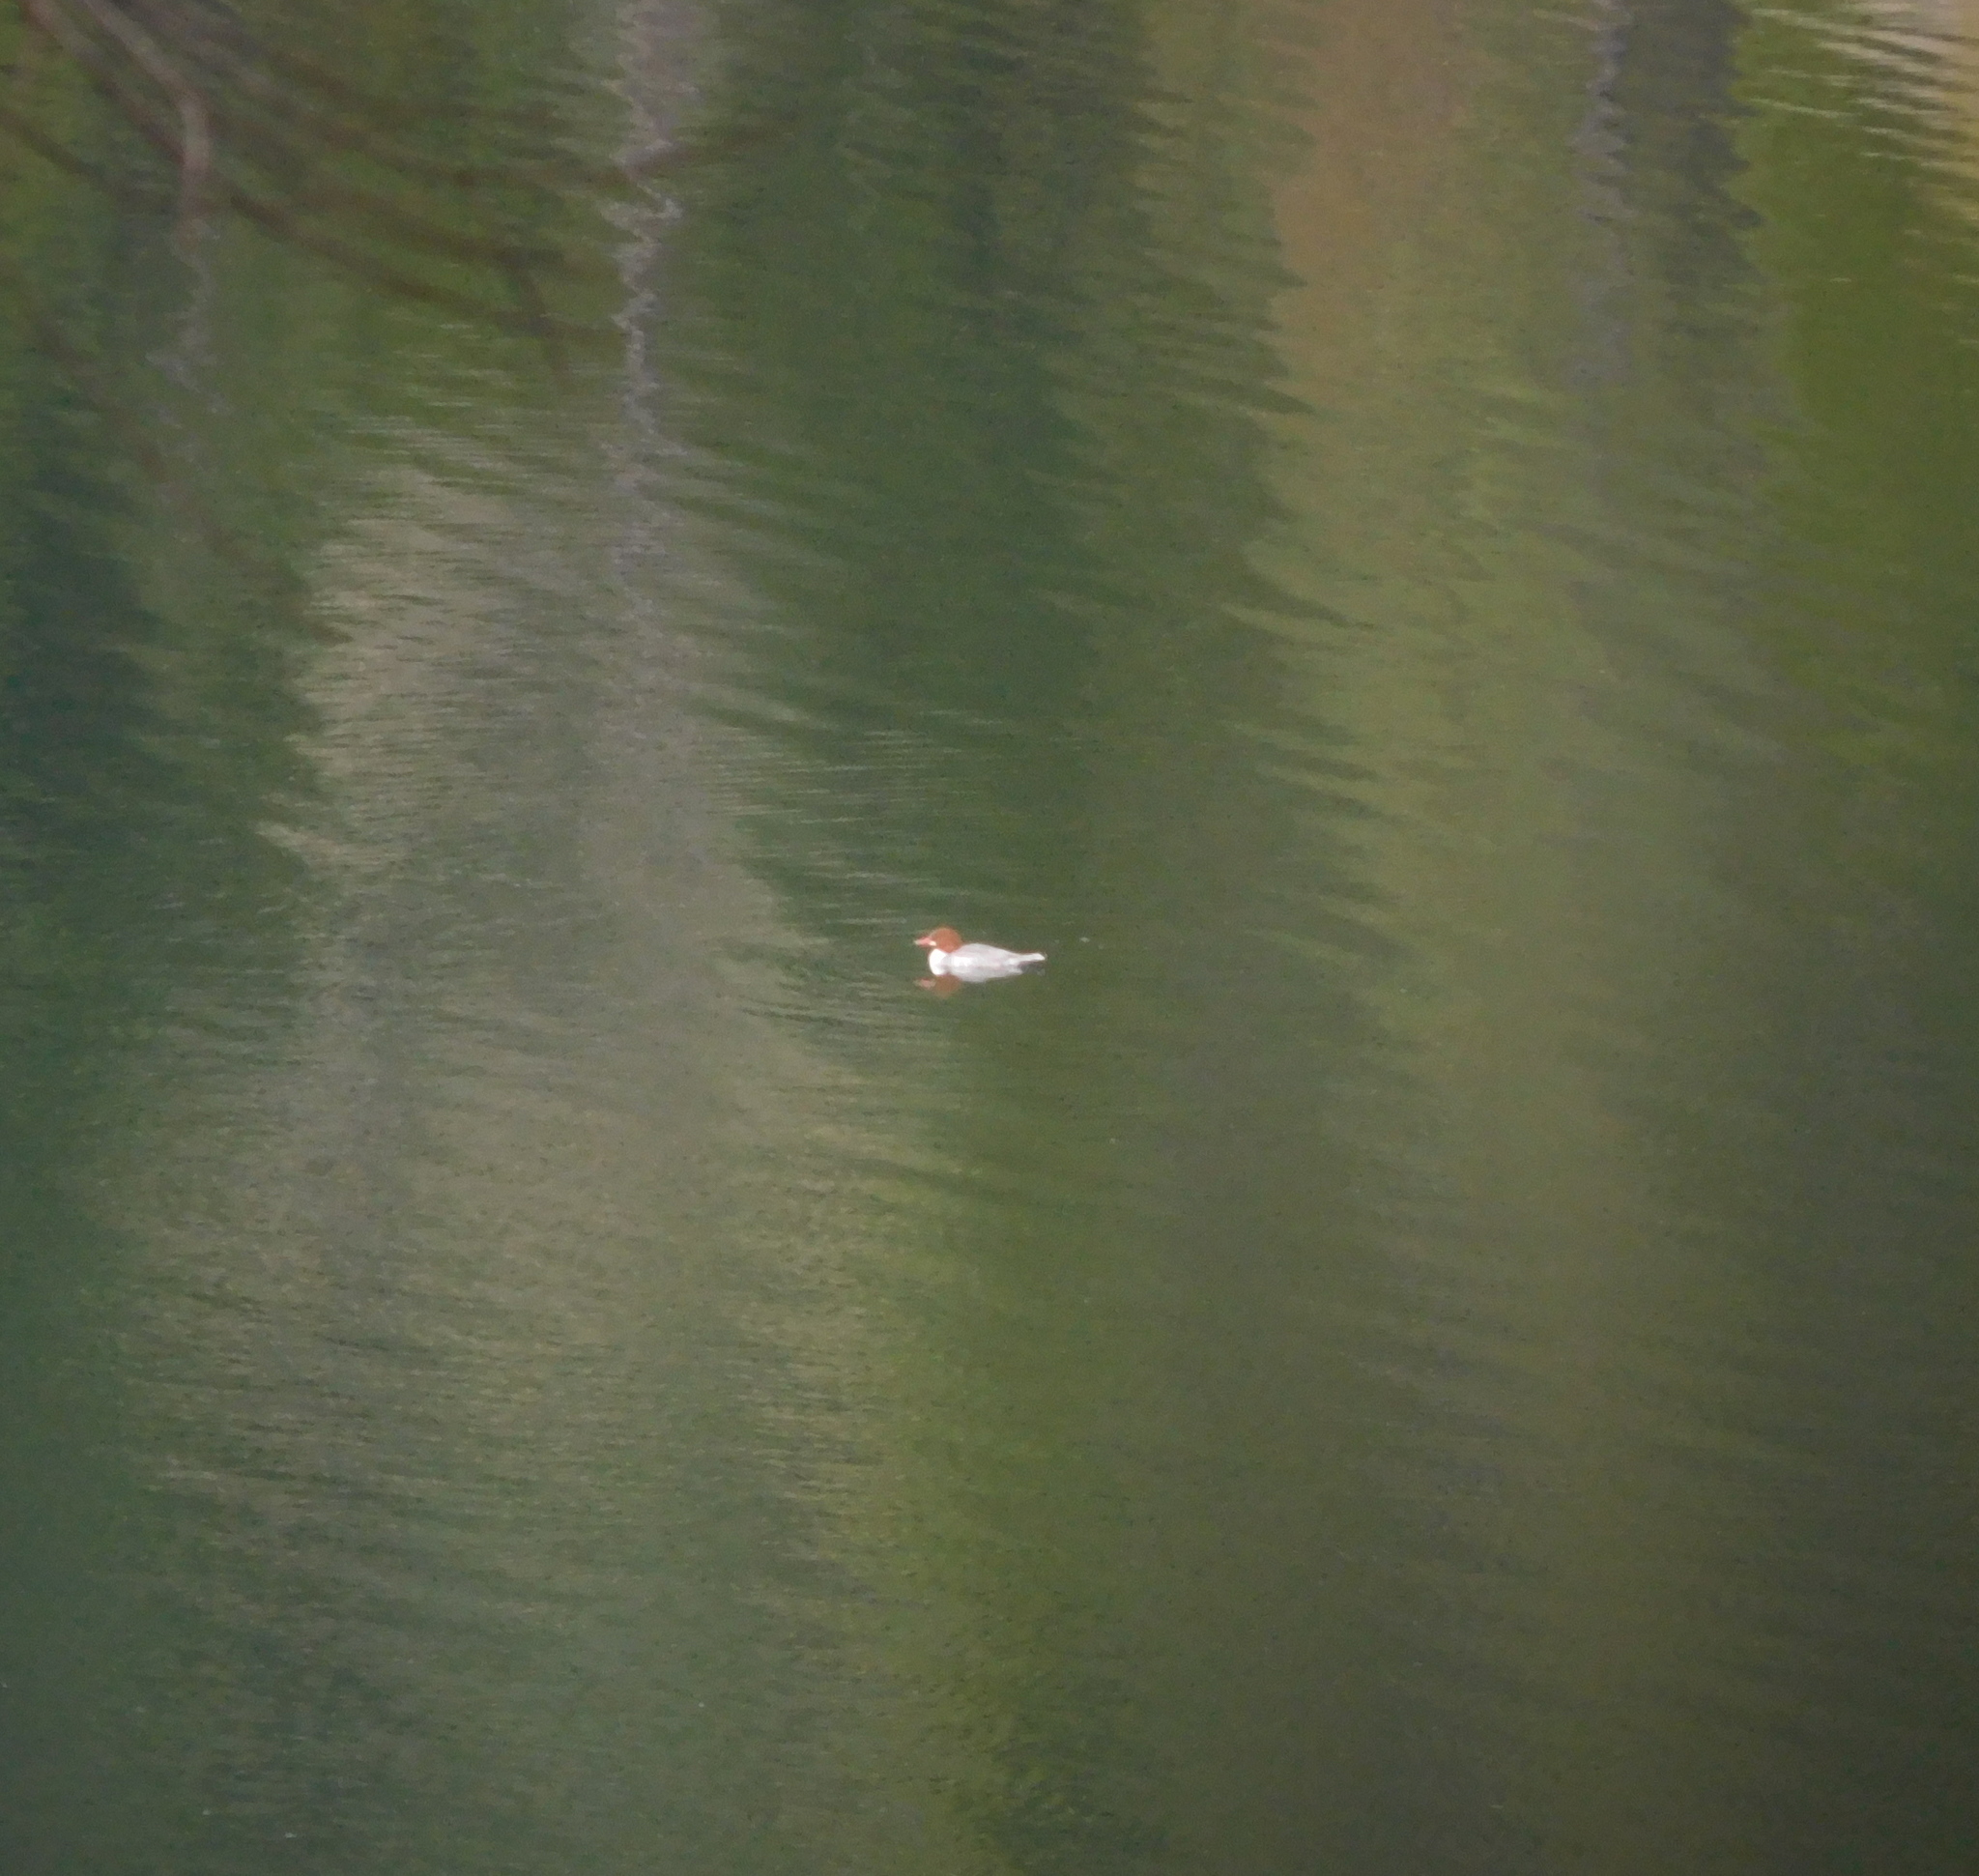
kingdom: Animalia
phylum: Chordata
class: Aves
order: Anseriformes
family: Anatidae
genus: Mergus
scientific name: Mergus merganser
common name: Common merganser
